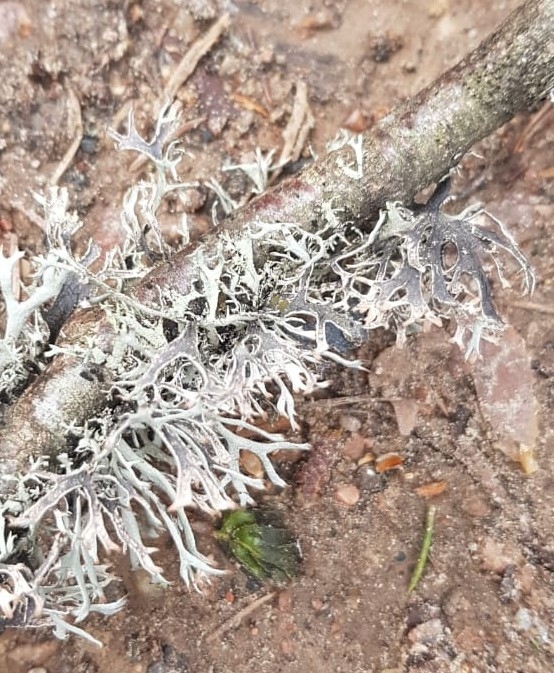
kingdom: Fungi
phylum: Ascomycota
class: Lecanoromycetes
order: Lecanorales
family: Parmeliaceae
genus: Pseudevernia
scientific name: Pseudevernia furfuracea
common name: Tree moss
